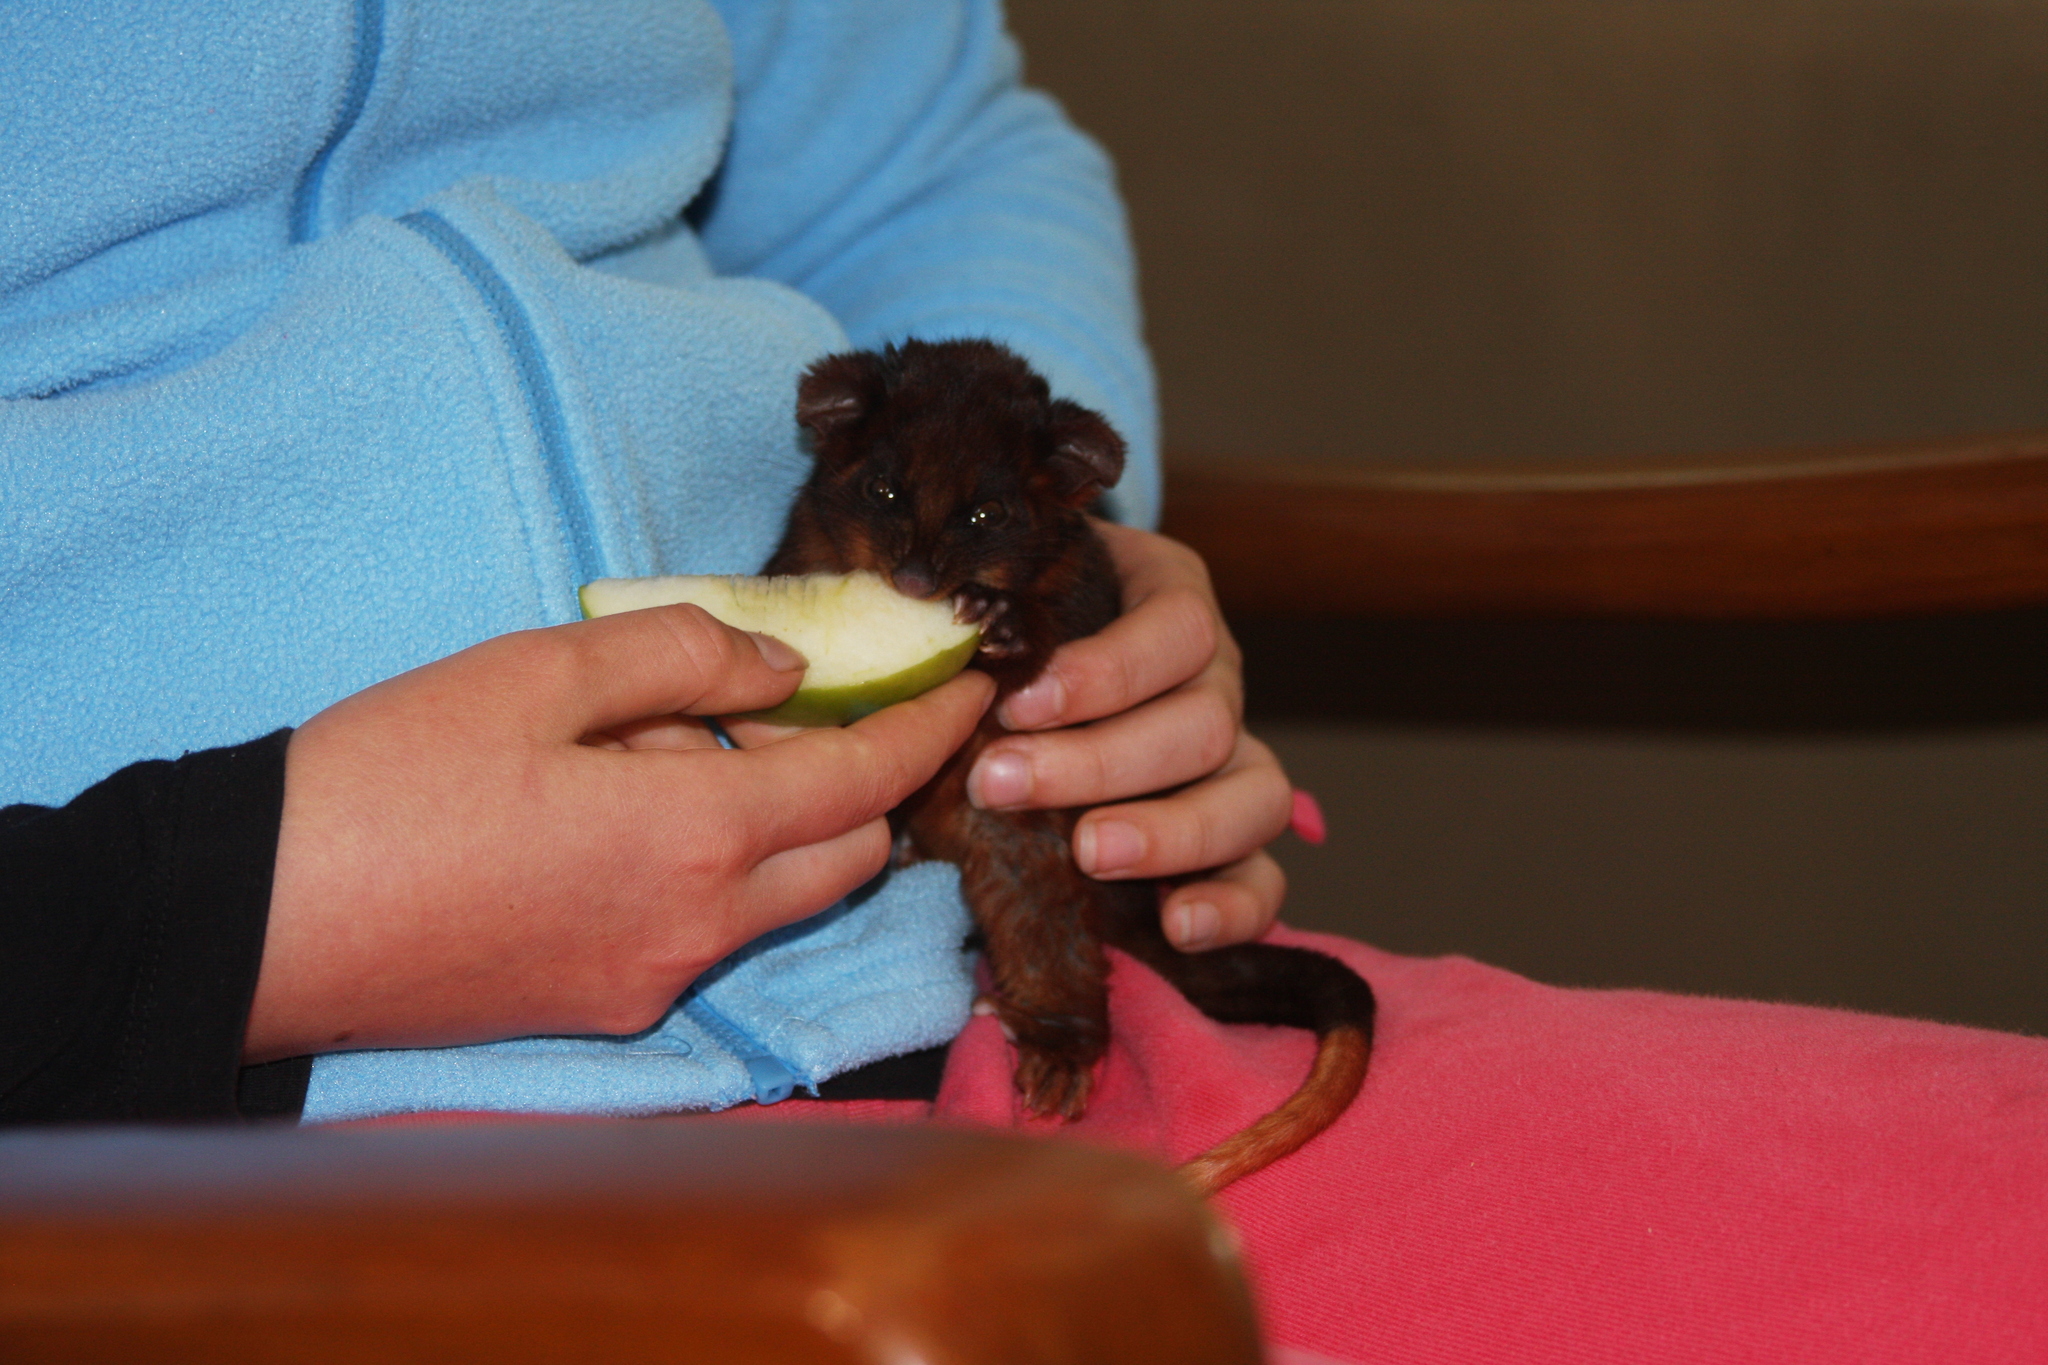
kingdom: Animalia
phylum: Chordata
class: Mammalia
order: Diprotodontia
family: Pseudocheiridae
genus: Pseudocheirus
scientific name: Pseudocheirus peregrinus
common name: Common ringtail possum
